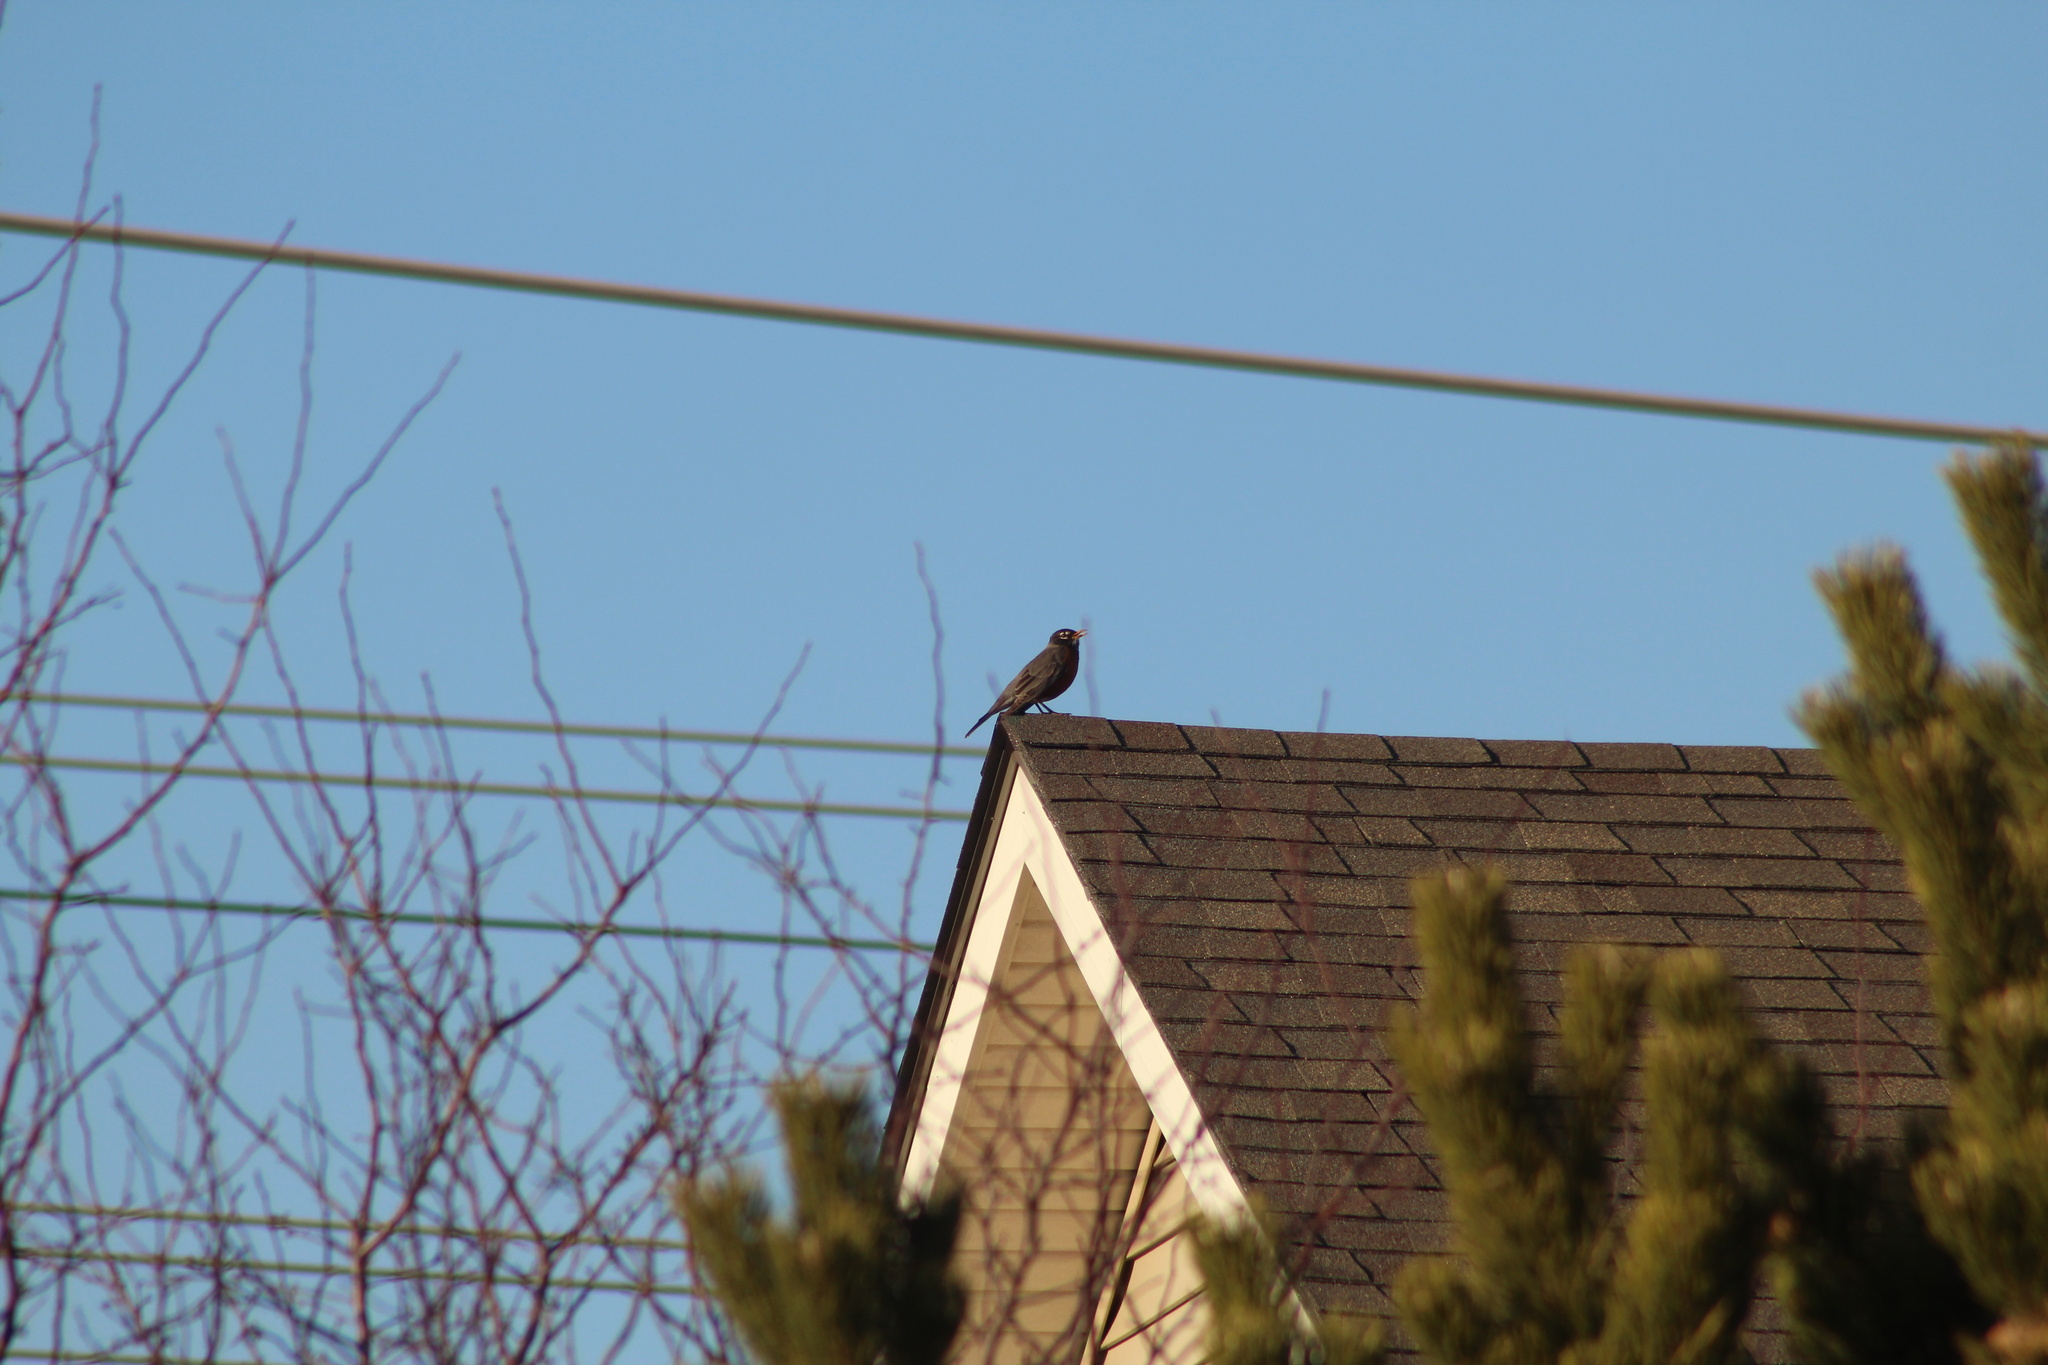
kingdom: Animalia
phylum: Chordata
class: Aves
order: Passeriformes
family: Turdidae
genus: Turdus
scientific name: Turdus migratorius
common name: American robin
